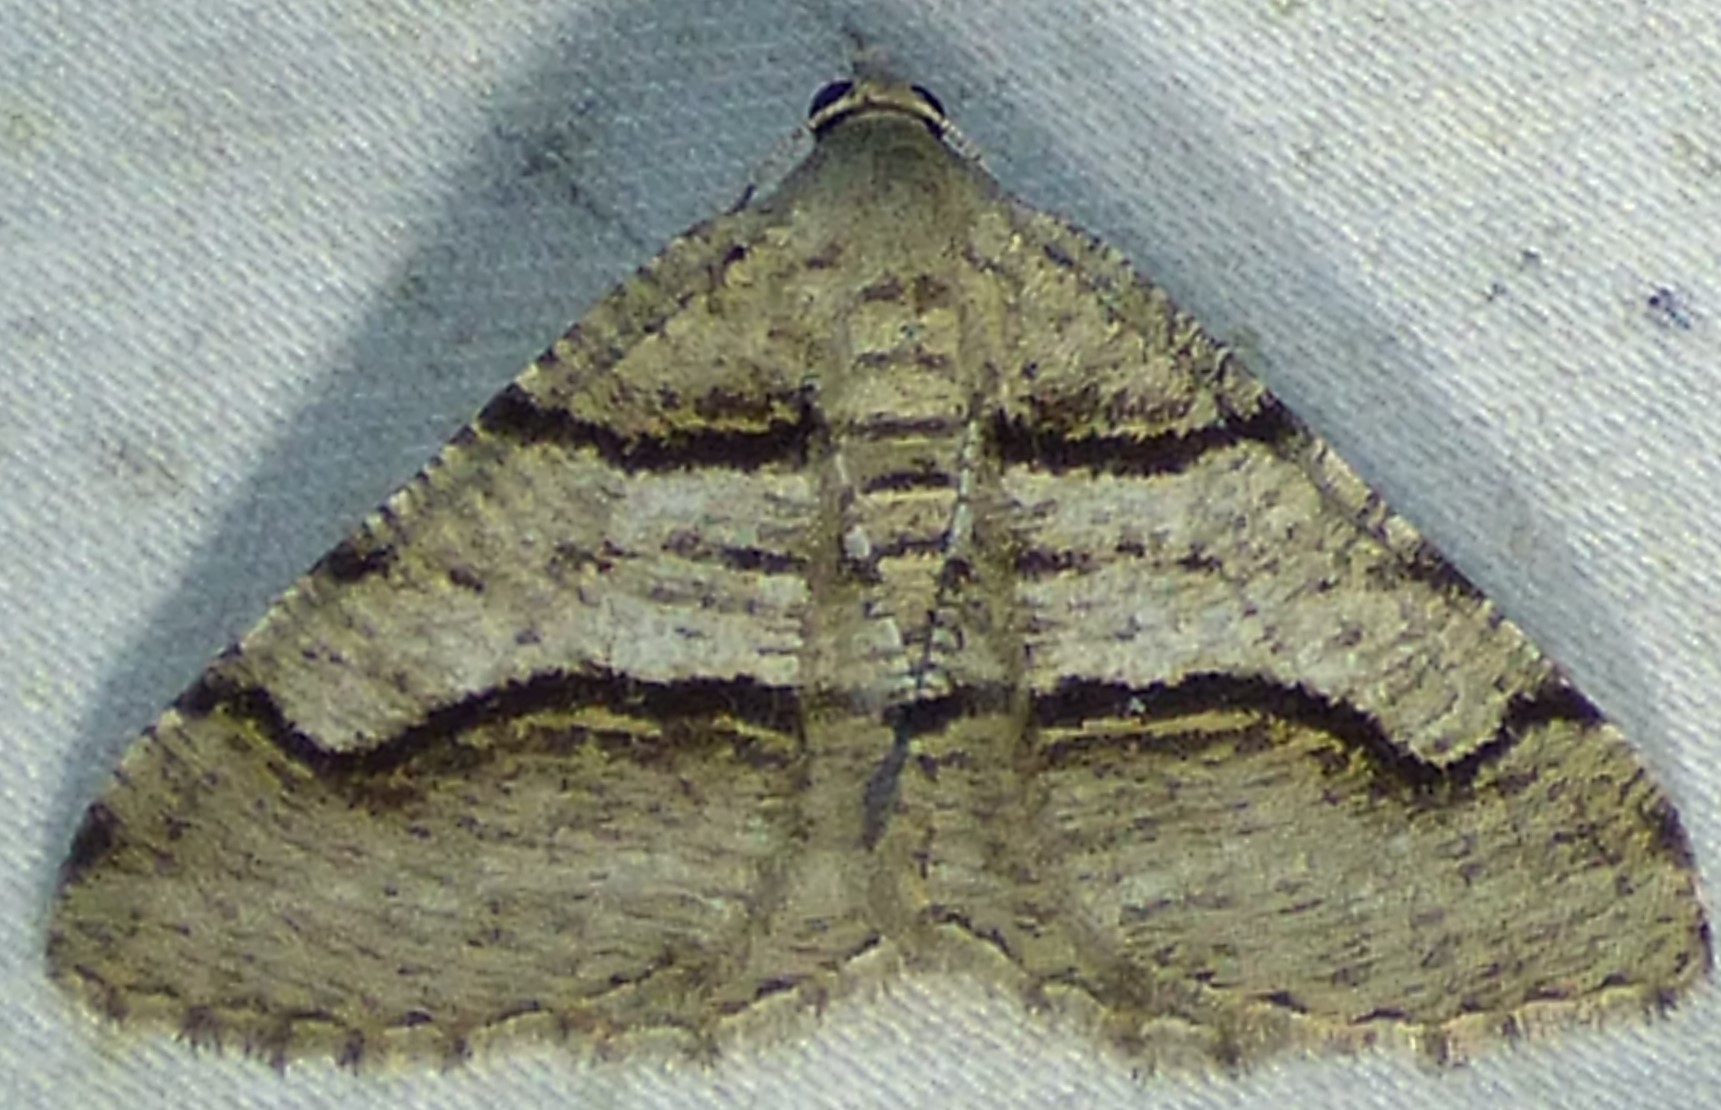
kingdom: Animalia
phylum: Arthropoda
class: Insecta
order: Lepidoptera
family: Geometridae
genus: Digrammia
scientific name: Digrammia continuata
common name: Curve-lined angle
